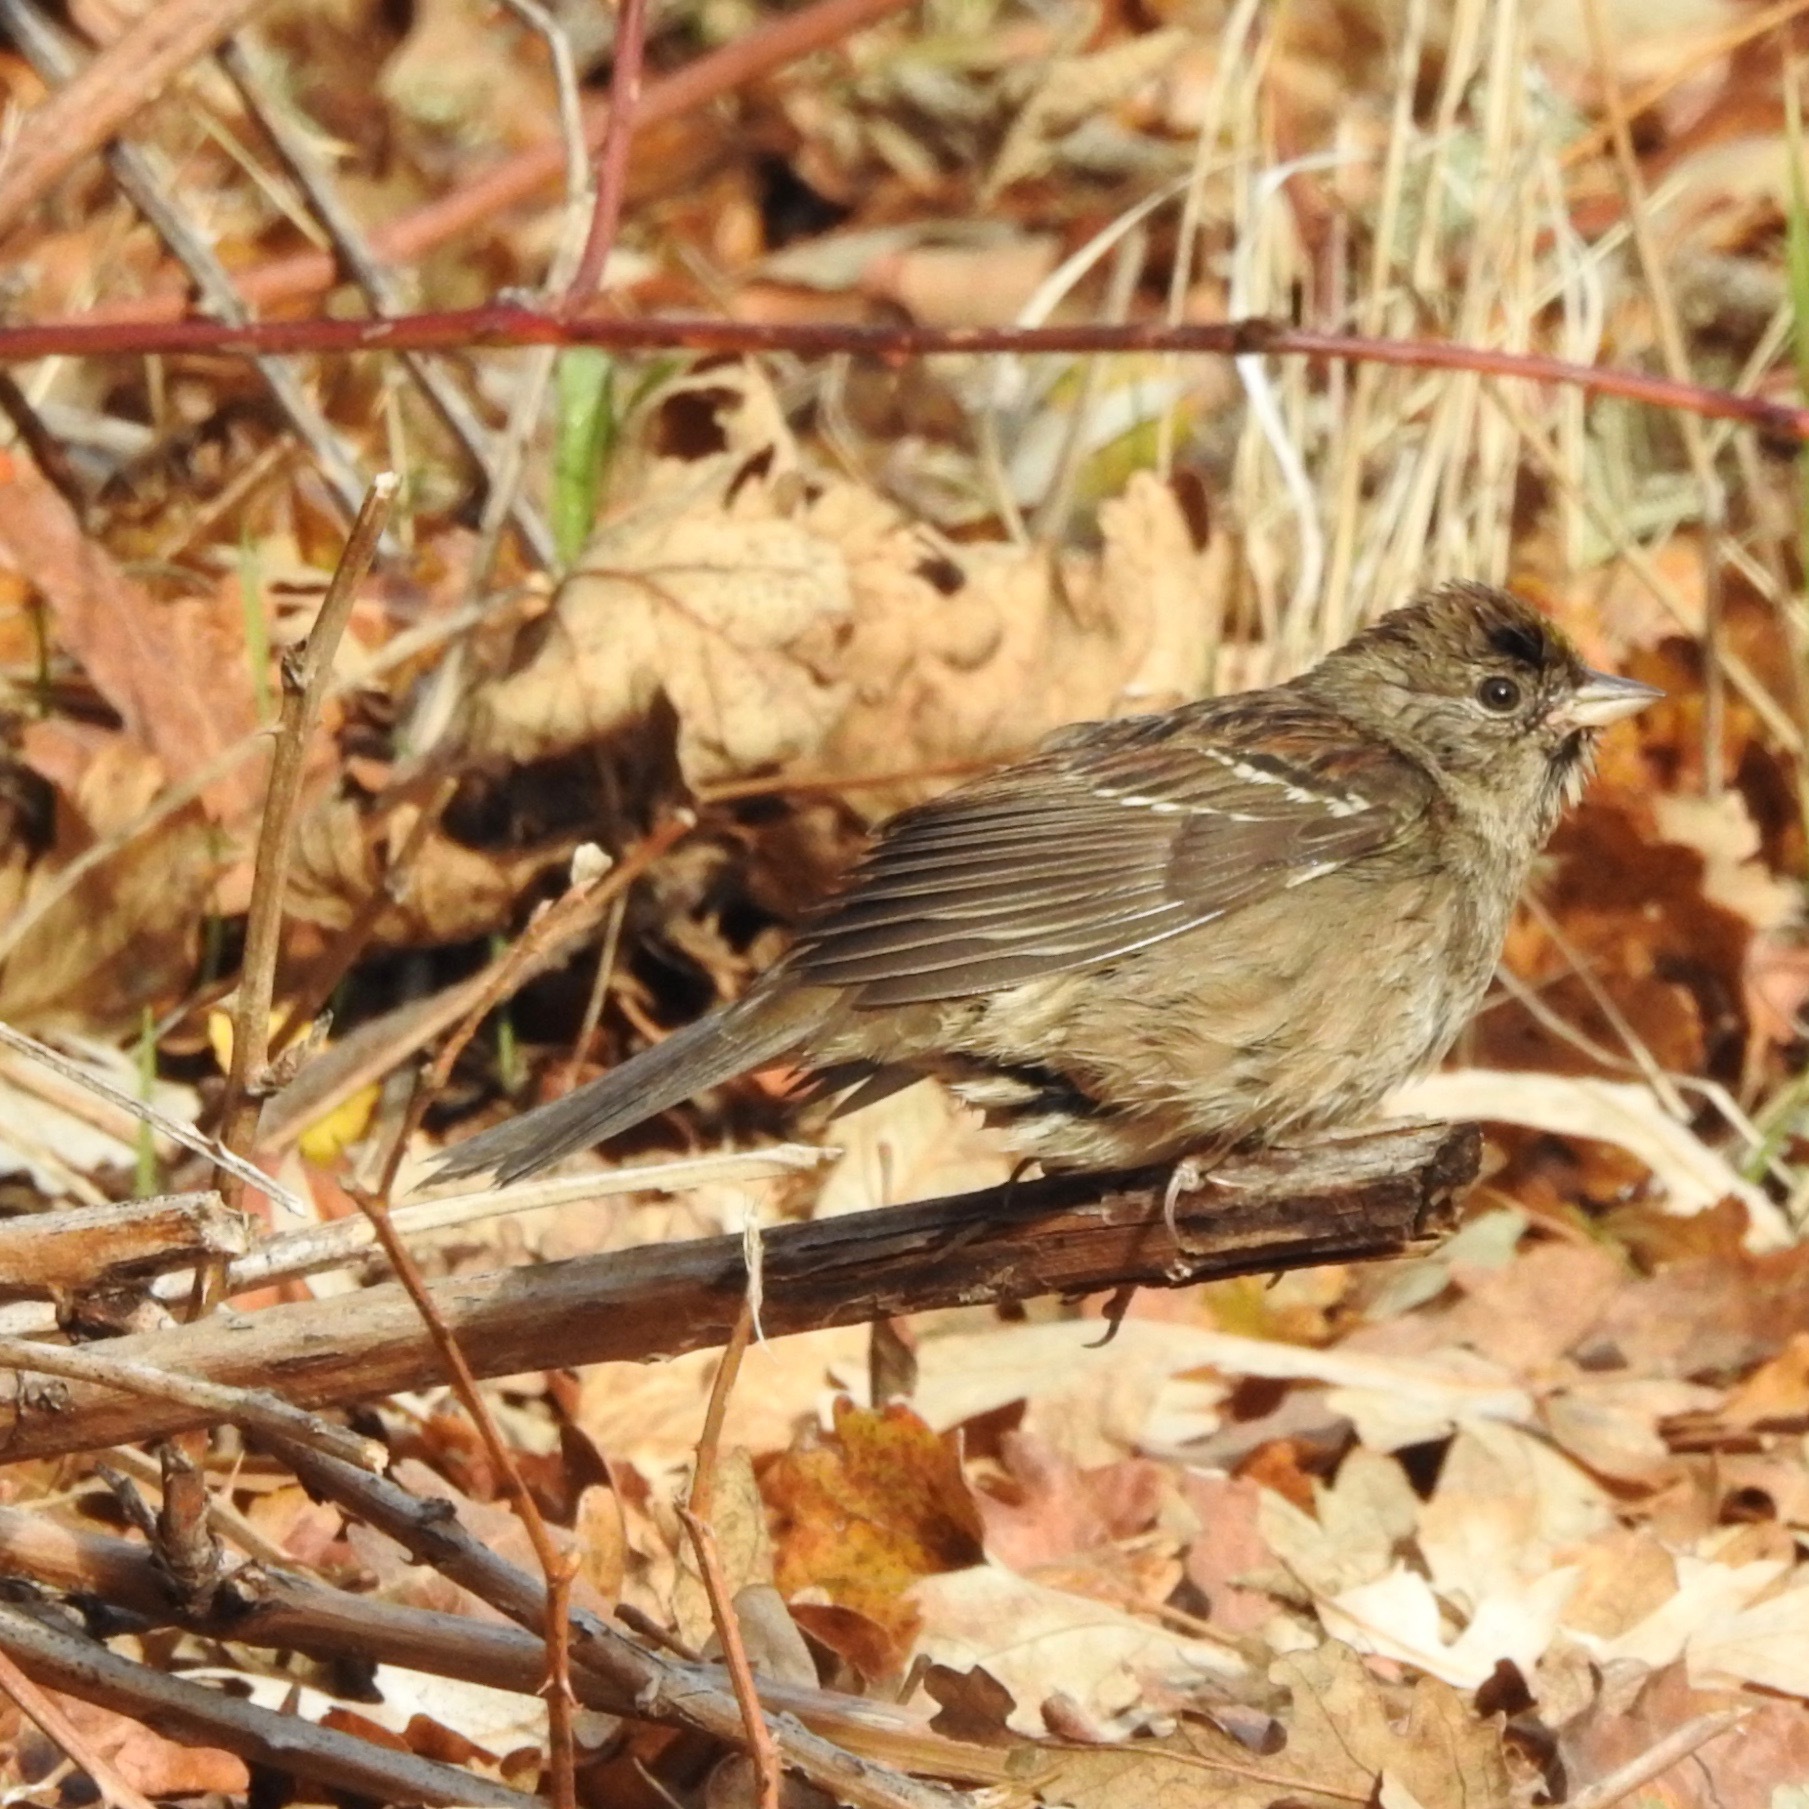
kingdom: Animalia
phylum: Chordata
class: Aves
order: Passeriformes
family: Passerellidae
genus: Zonotrichia
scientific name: Zonotrichia atricapilla
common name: Golden-crowned sparrow
